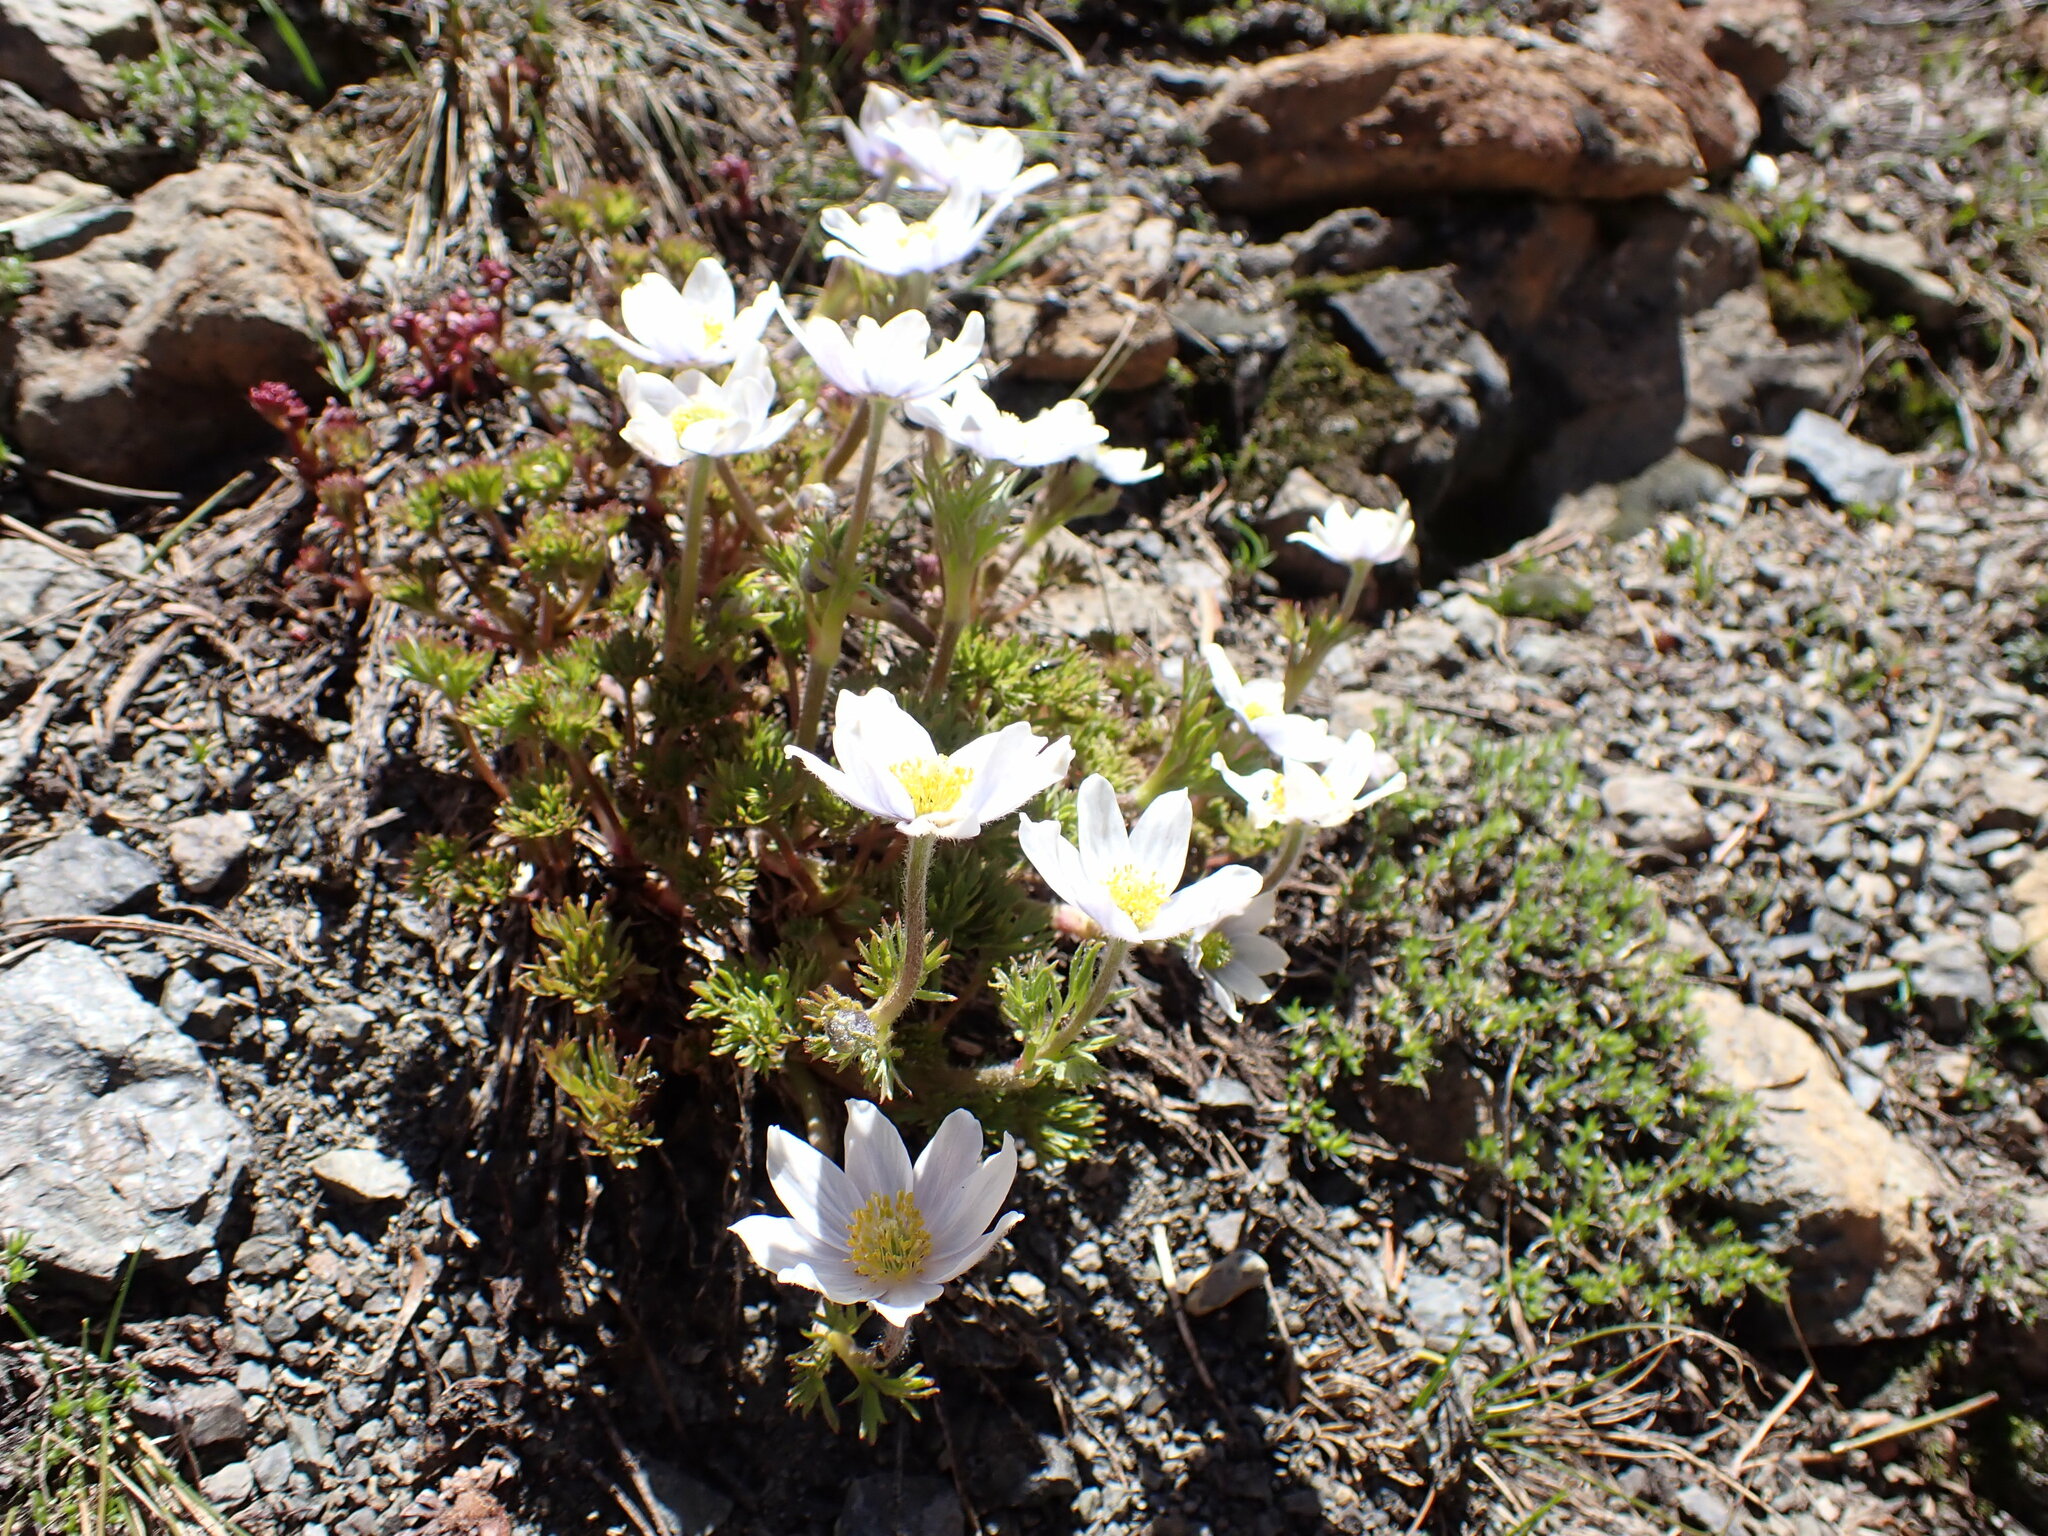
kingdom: Plantae
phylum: Tracheophyta
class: Magnoliopsida
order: Ranunculales
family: Ranunculaceae
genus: Anemone
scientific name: Anemone drummondii
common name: Drummond's anemone
